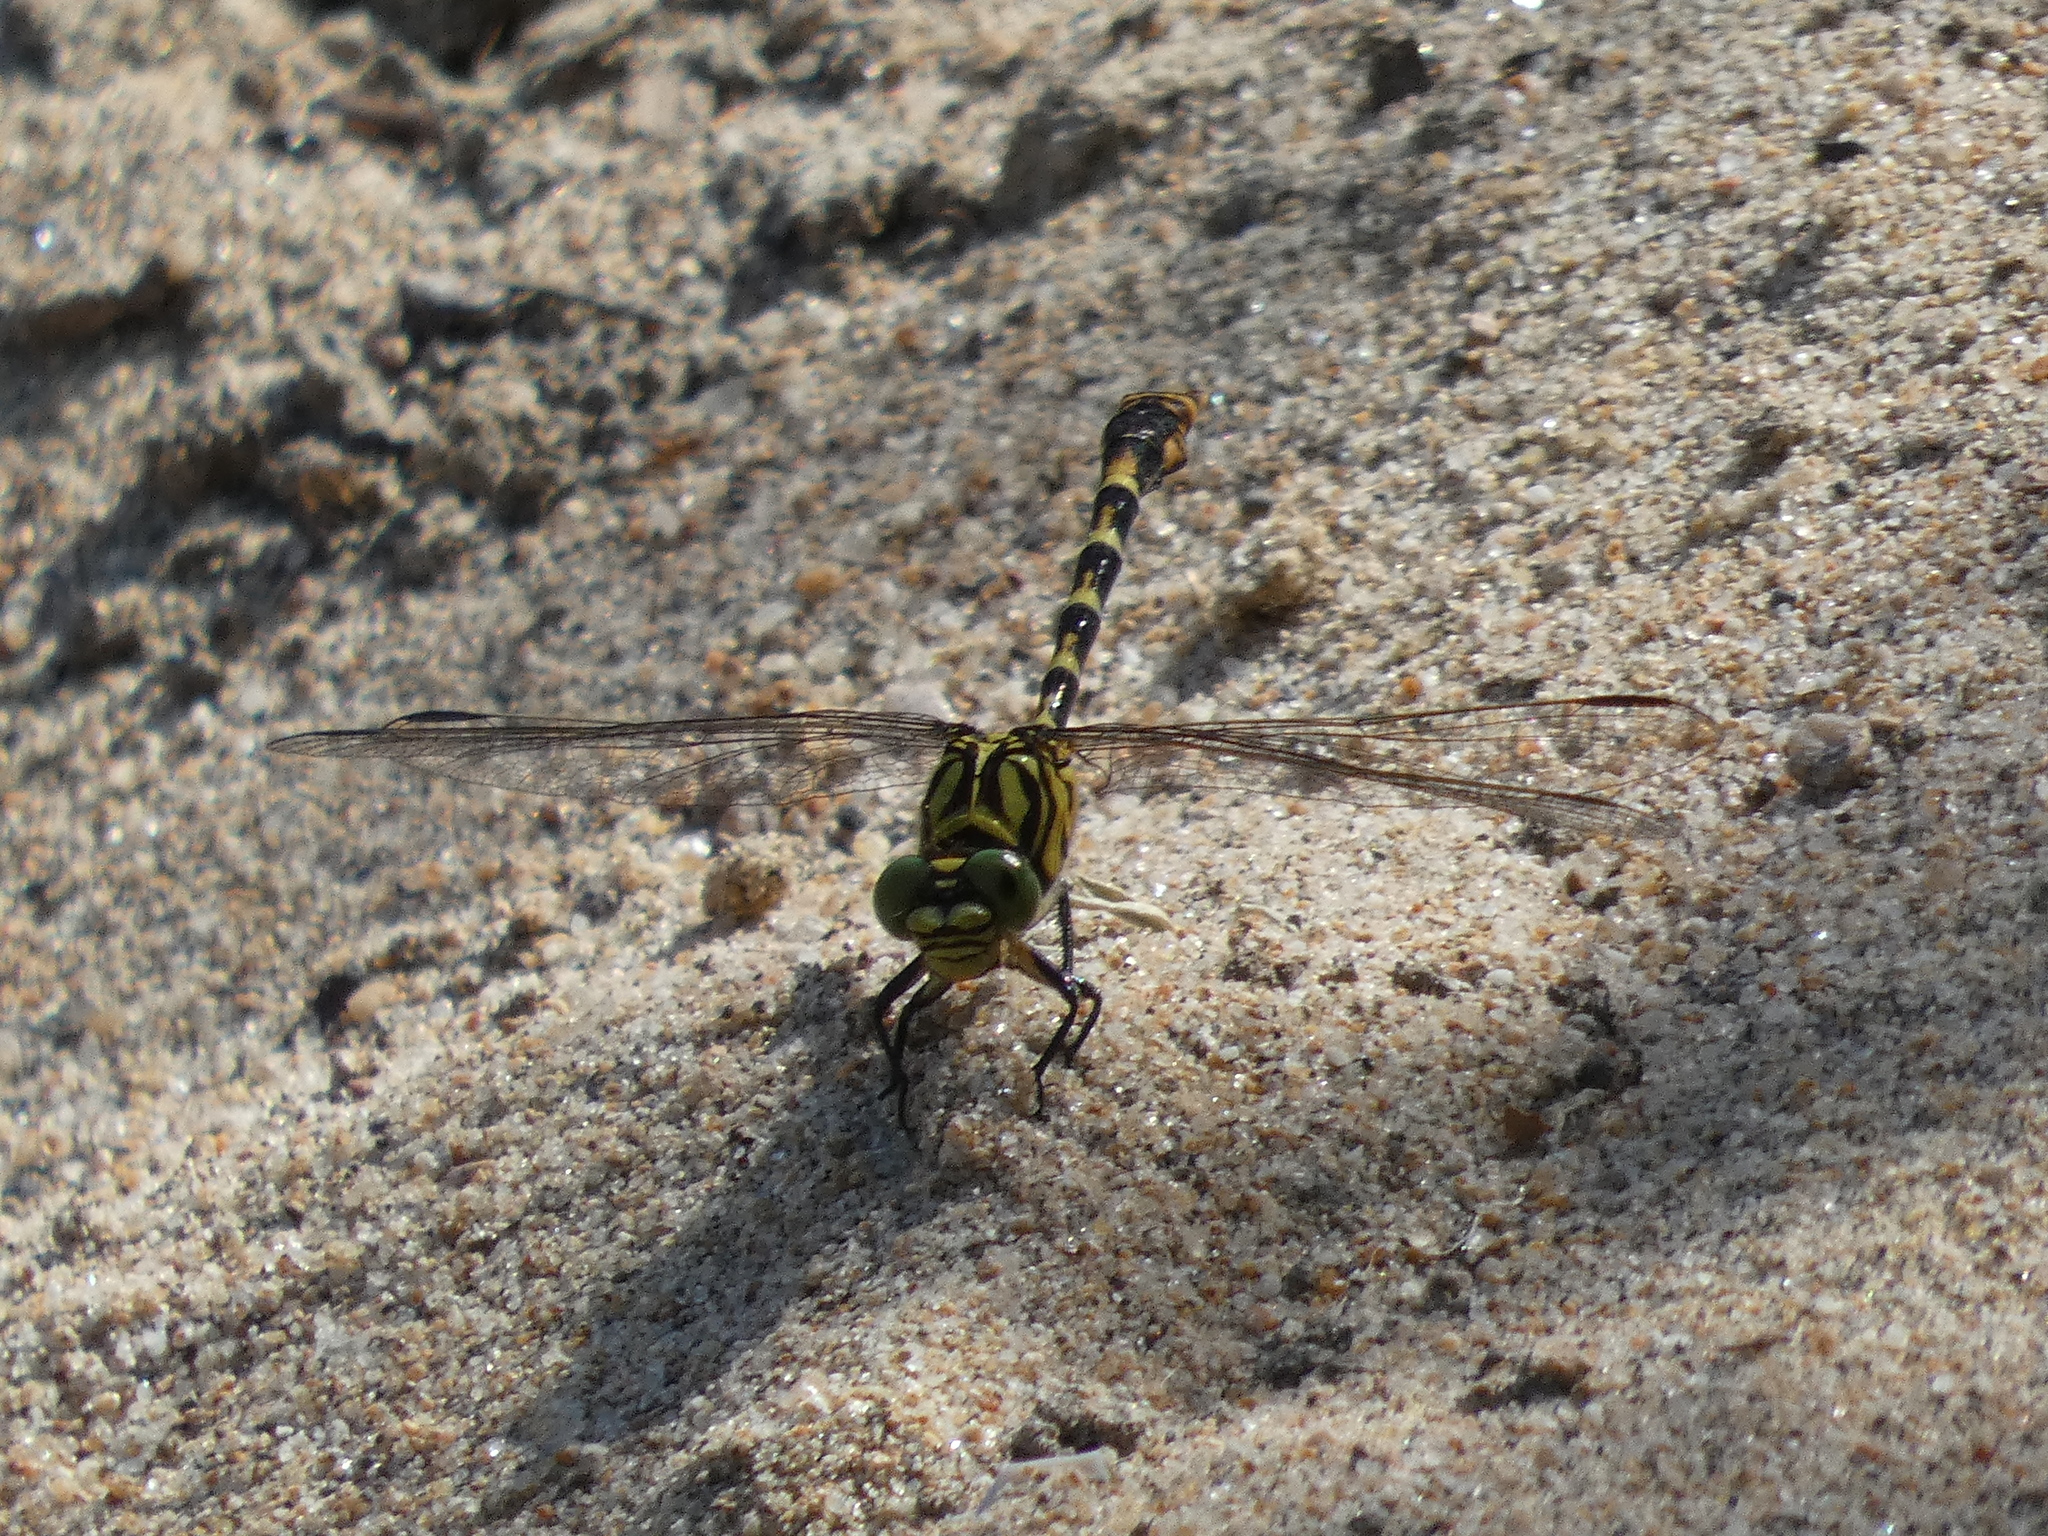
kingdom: Animalia
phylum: Arthropoda
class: Insecta
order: Odonata
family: Gomphidae
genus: Onychogomphus
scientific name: Onychogomphus forcipatus
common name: Small pincertail
